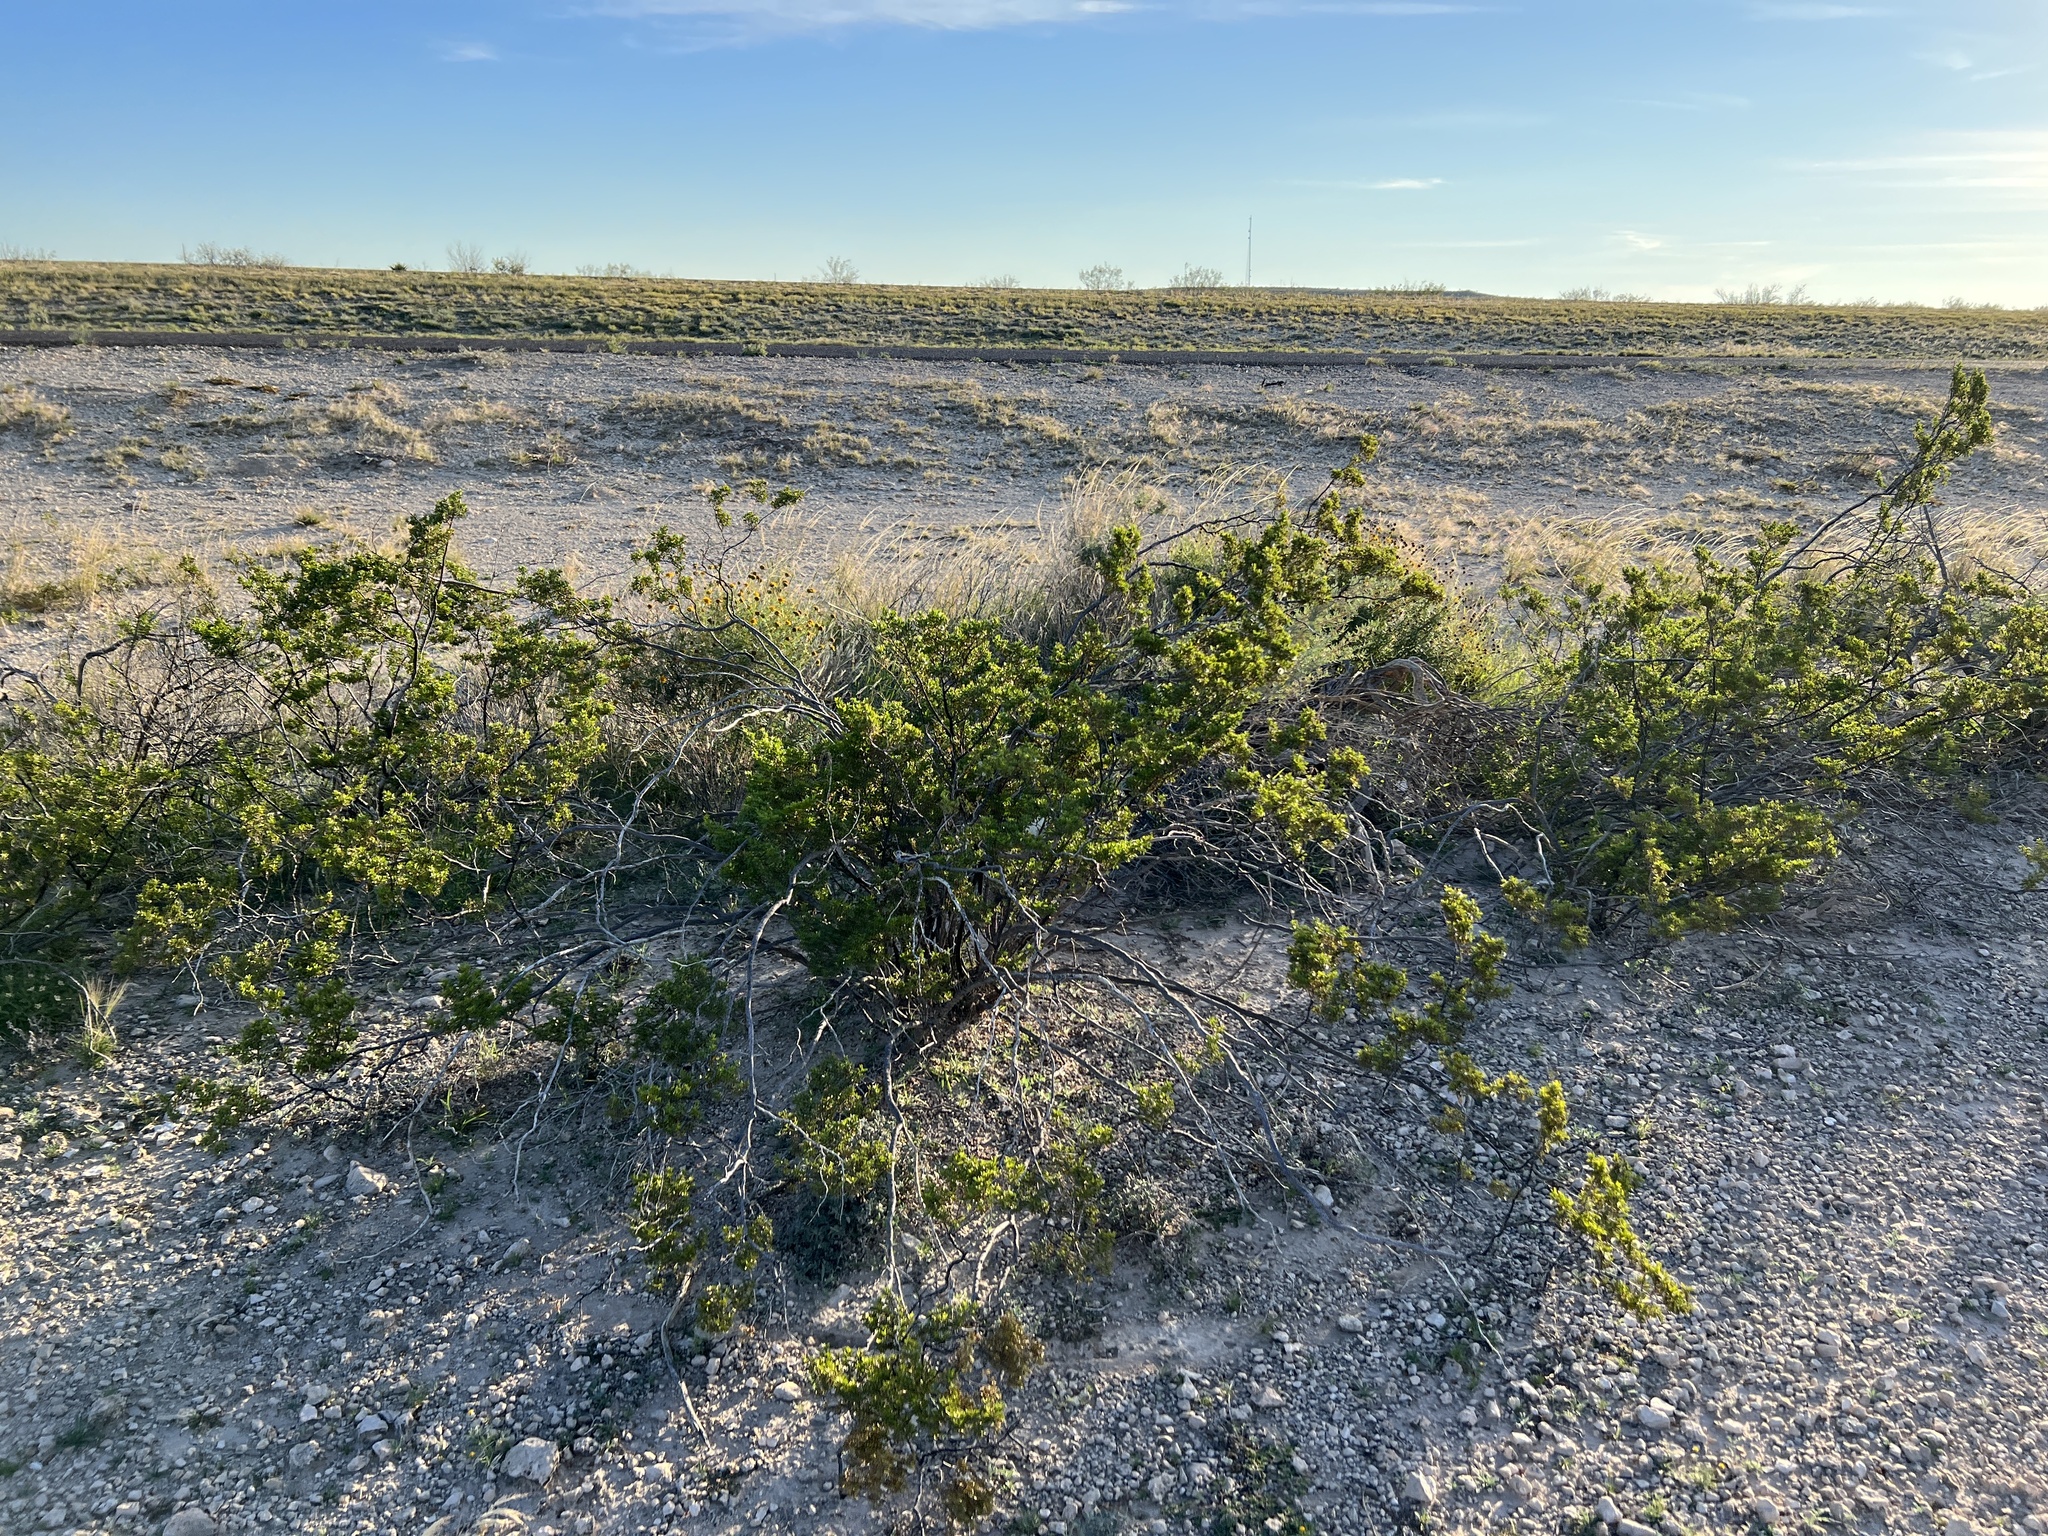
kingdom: Plantae
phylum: Tracheophyta
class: Magnoliopsida
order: Zygophyllales
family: Zygophyllaceae
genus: Larrea
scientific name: Larrea tridentata
